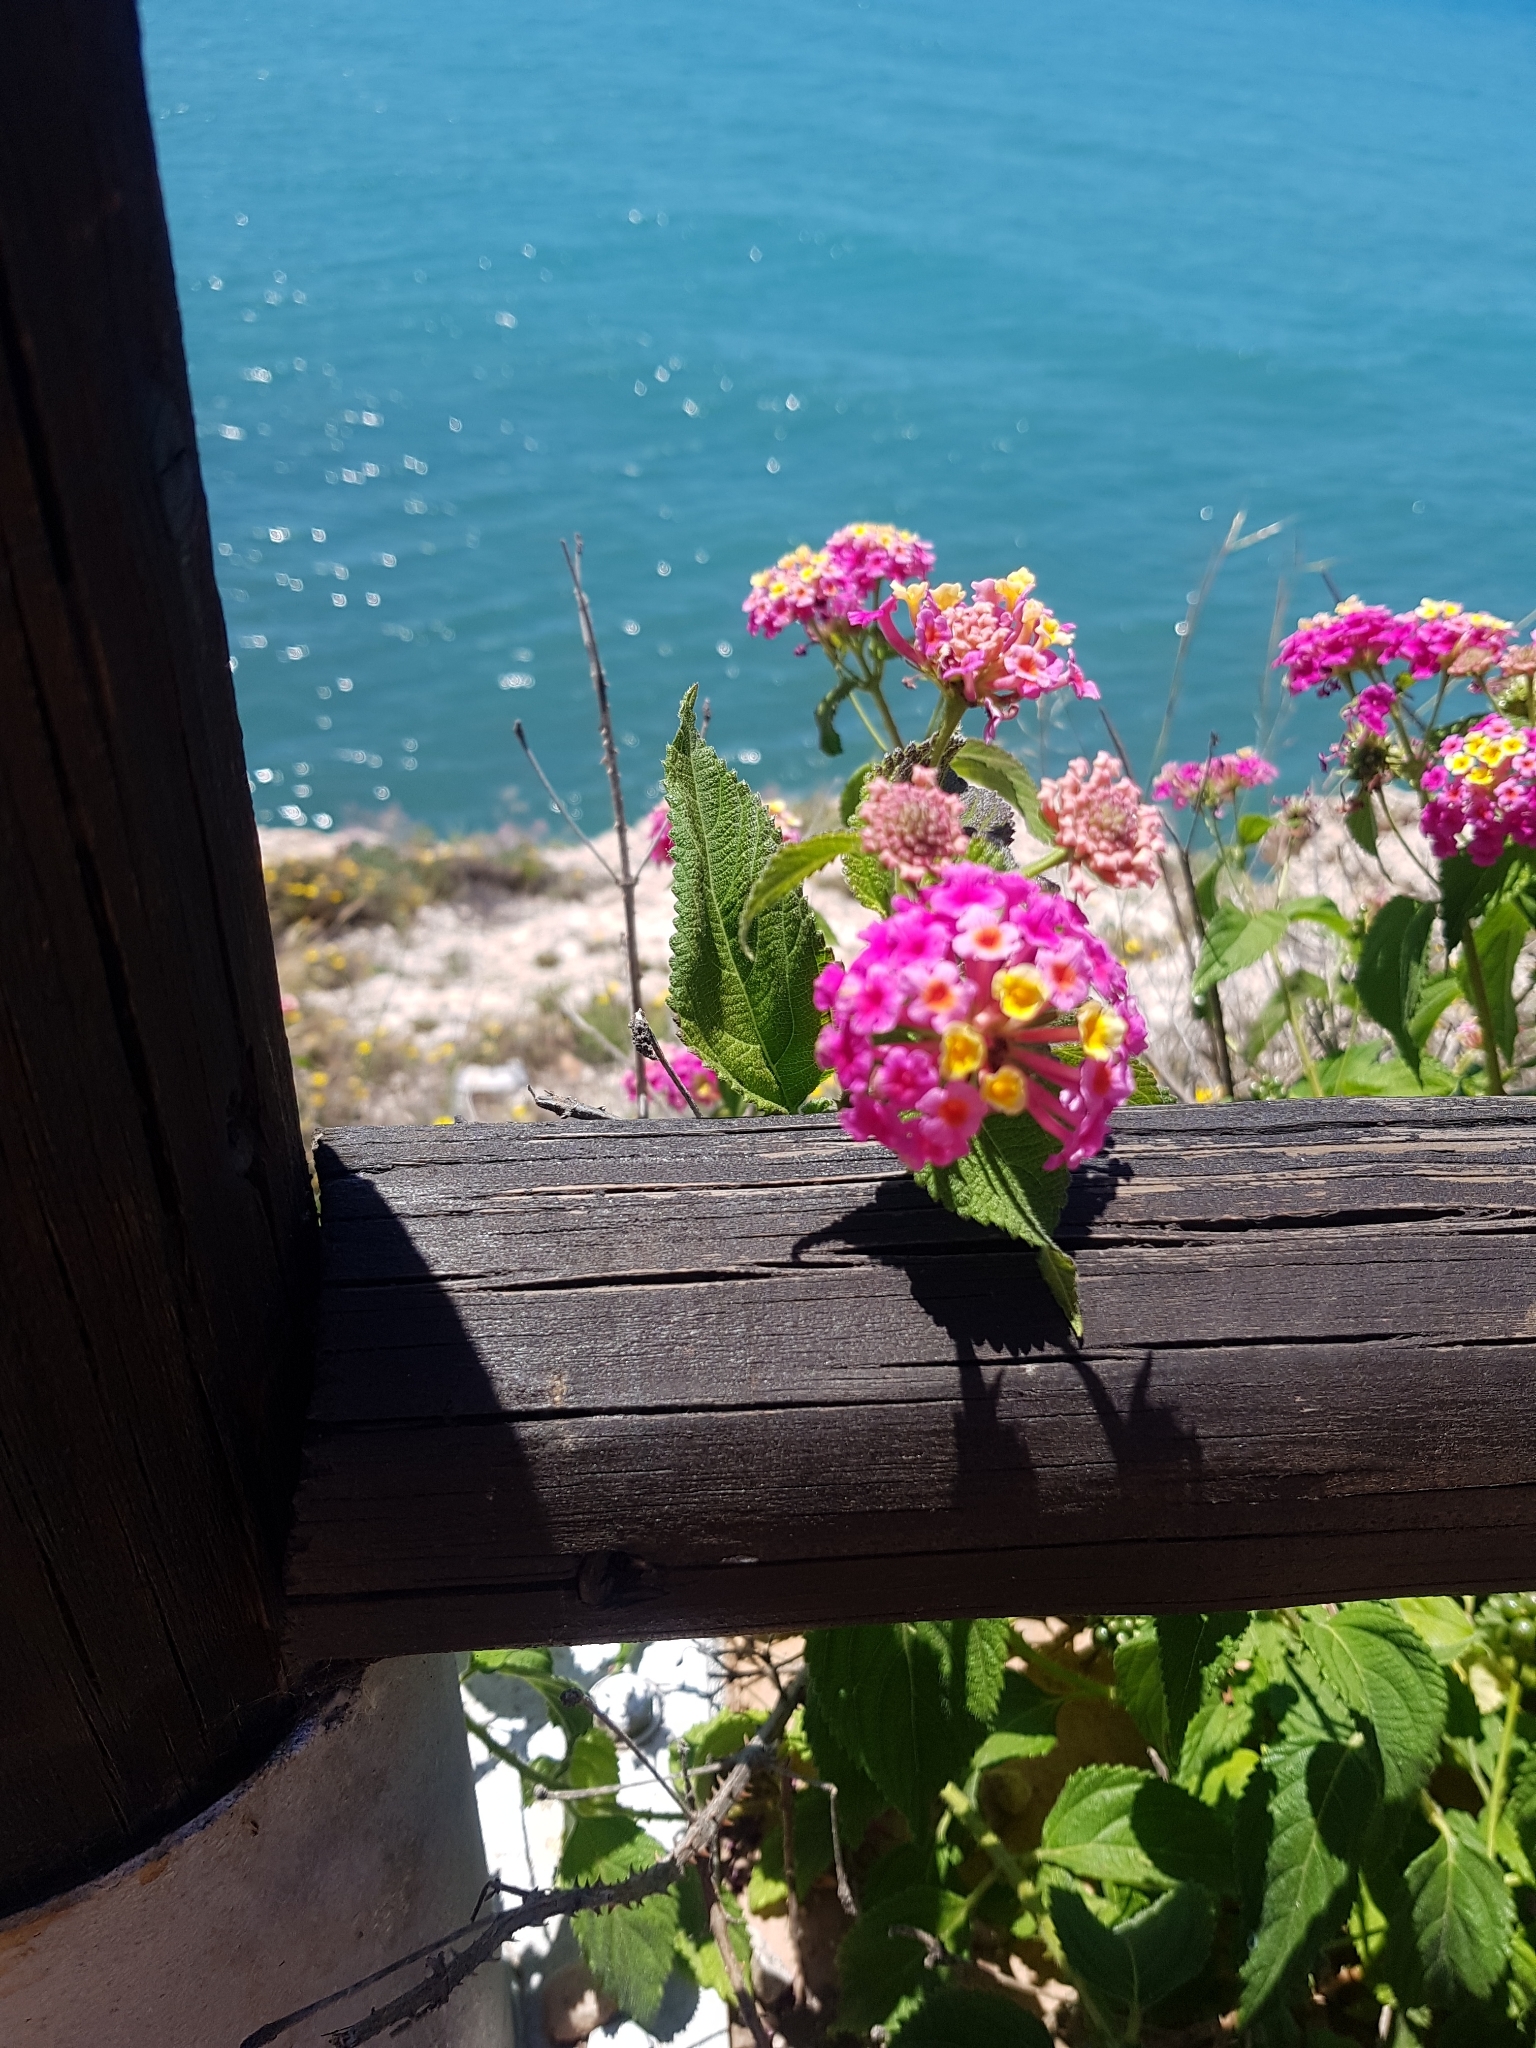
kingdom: Plantae
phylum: Tracheophyta
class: Magnoliopsida
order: Lamiales
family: Verbenaceae
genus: Lantana
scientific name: Lantana camara
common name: Lantana
